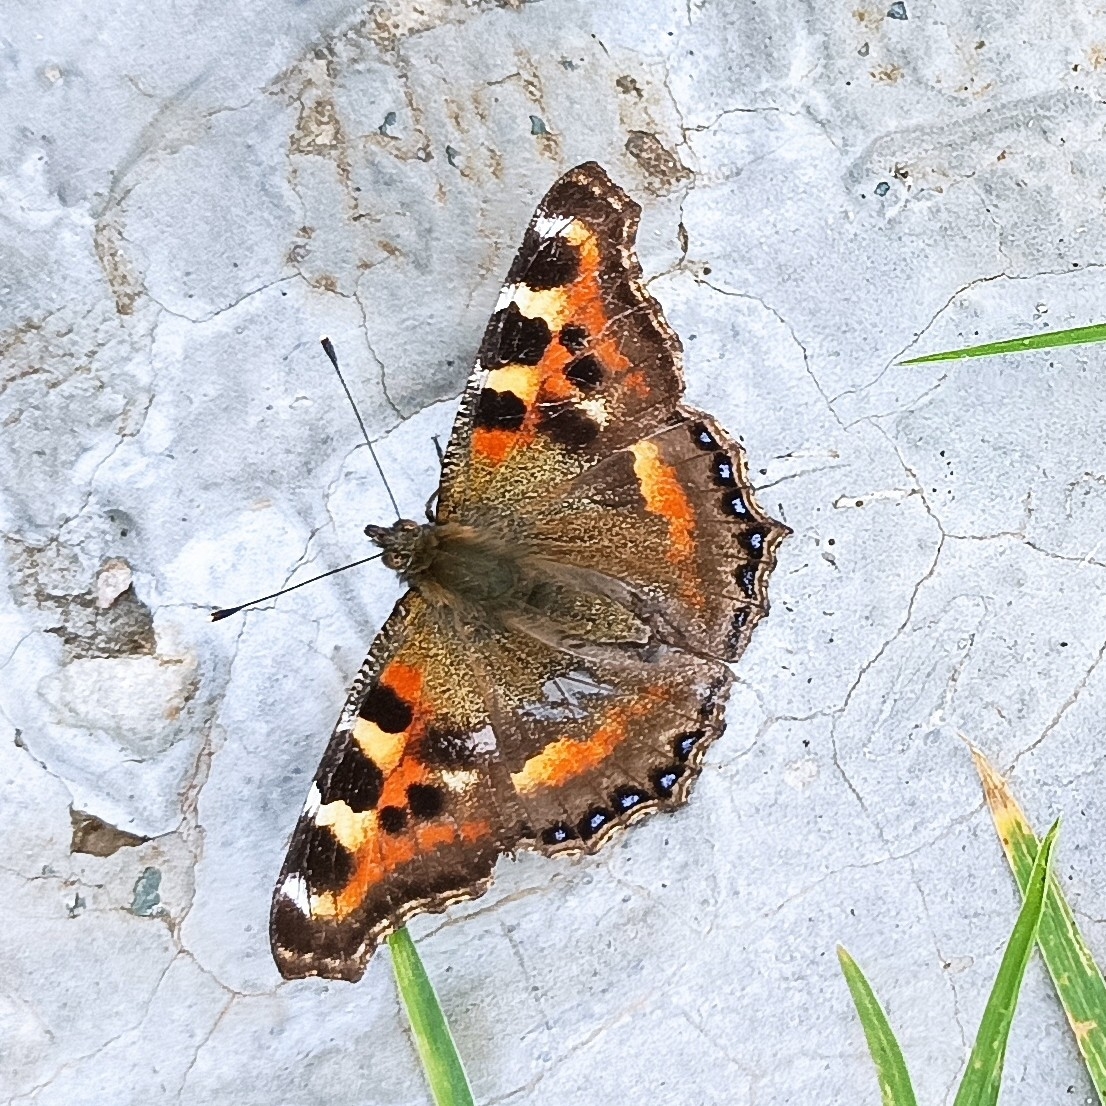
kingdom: Animalia
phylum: Arthropoda
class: Insecta
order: Lepidoptera
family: Nymphalidae
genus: Aglais
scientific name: Aglais caschmirensis
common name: Indian tortoiseshell
